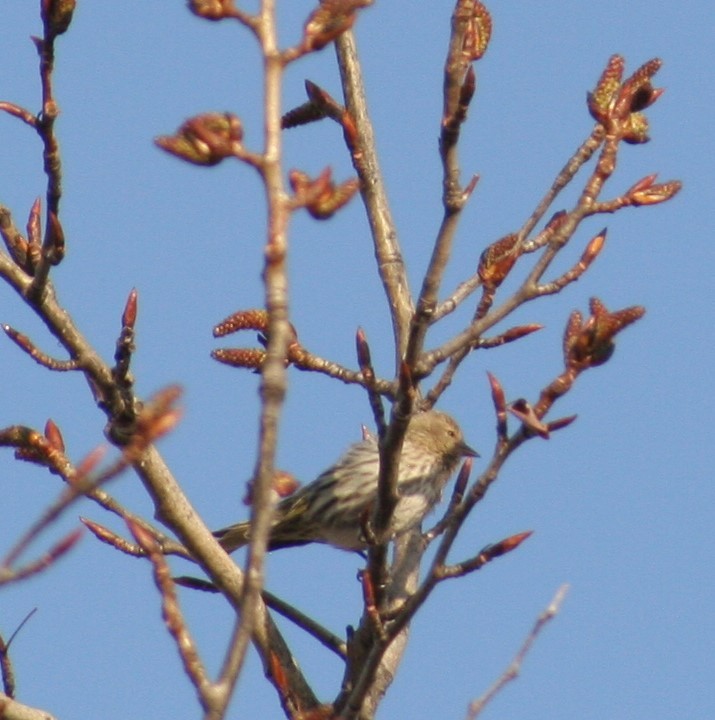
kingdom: Animalia
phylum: Chordata
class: Aves
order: Passeriformes
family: Fringillidae
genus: Spinus
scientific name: Spinus pinus
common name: Pine siskin
